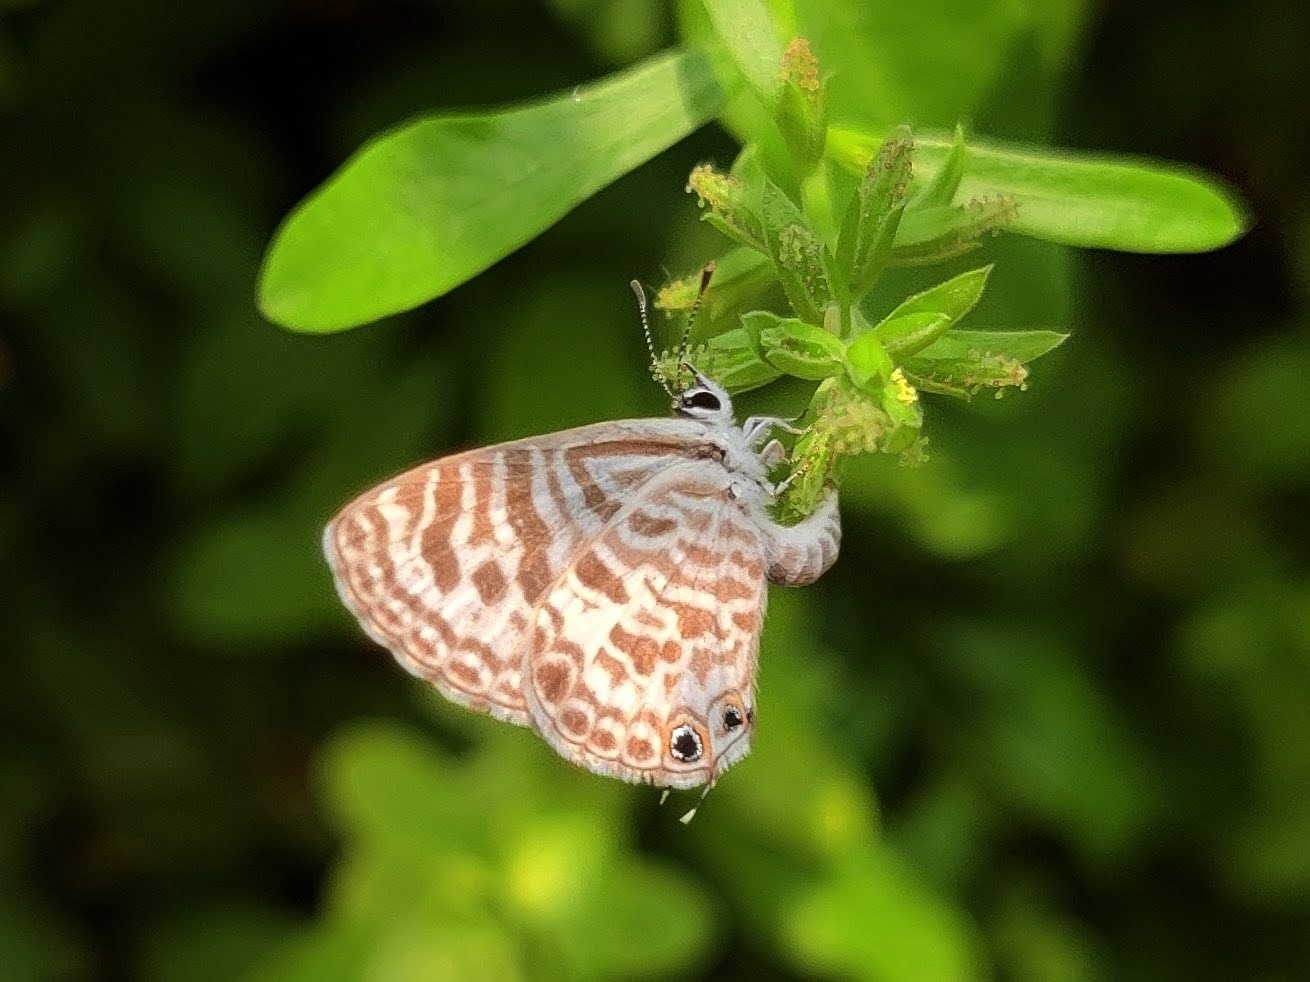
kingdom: Animalia
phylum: Arthropoda
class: Insecta
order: Lepidoptera
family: Lycaenidae
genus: Leptotes
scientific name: Leptotes plinius
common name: Zebra blue
